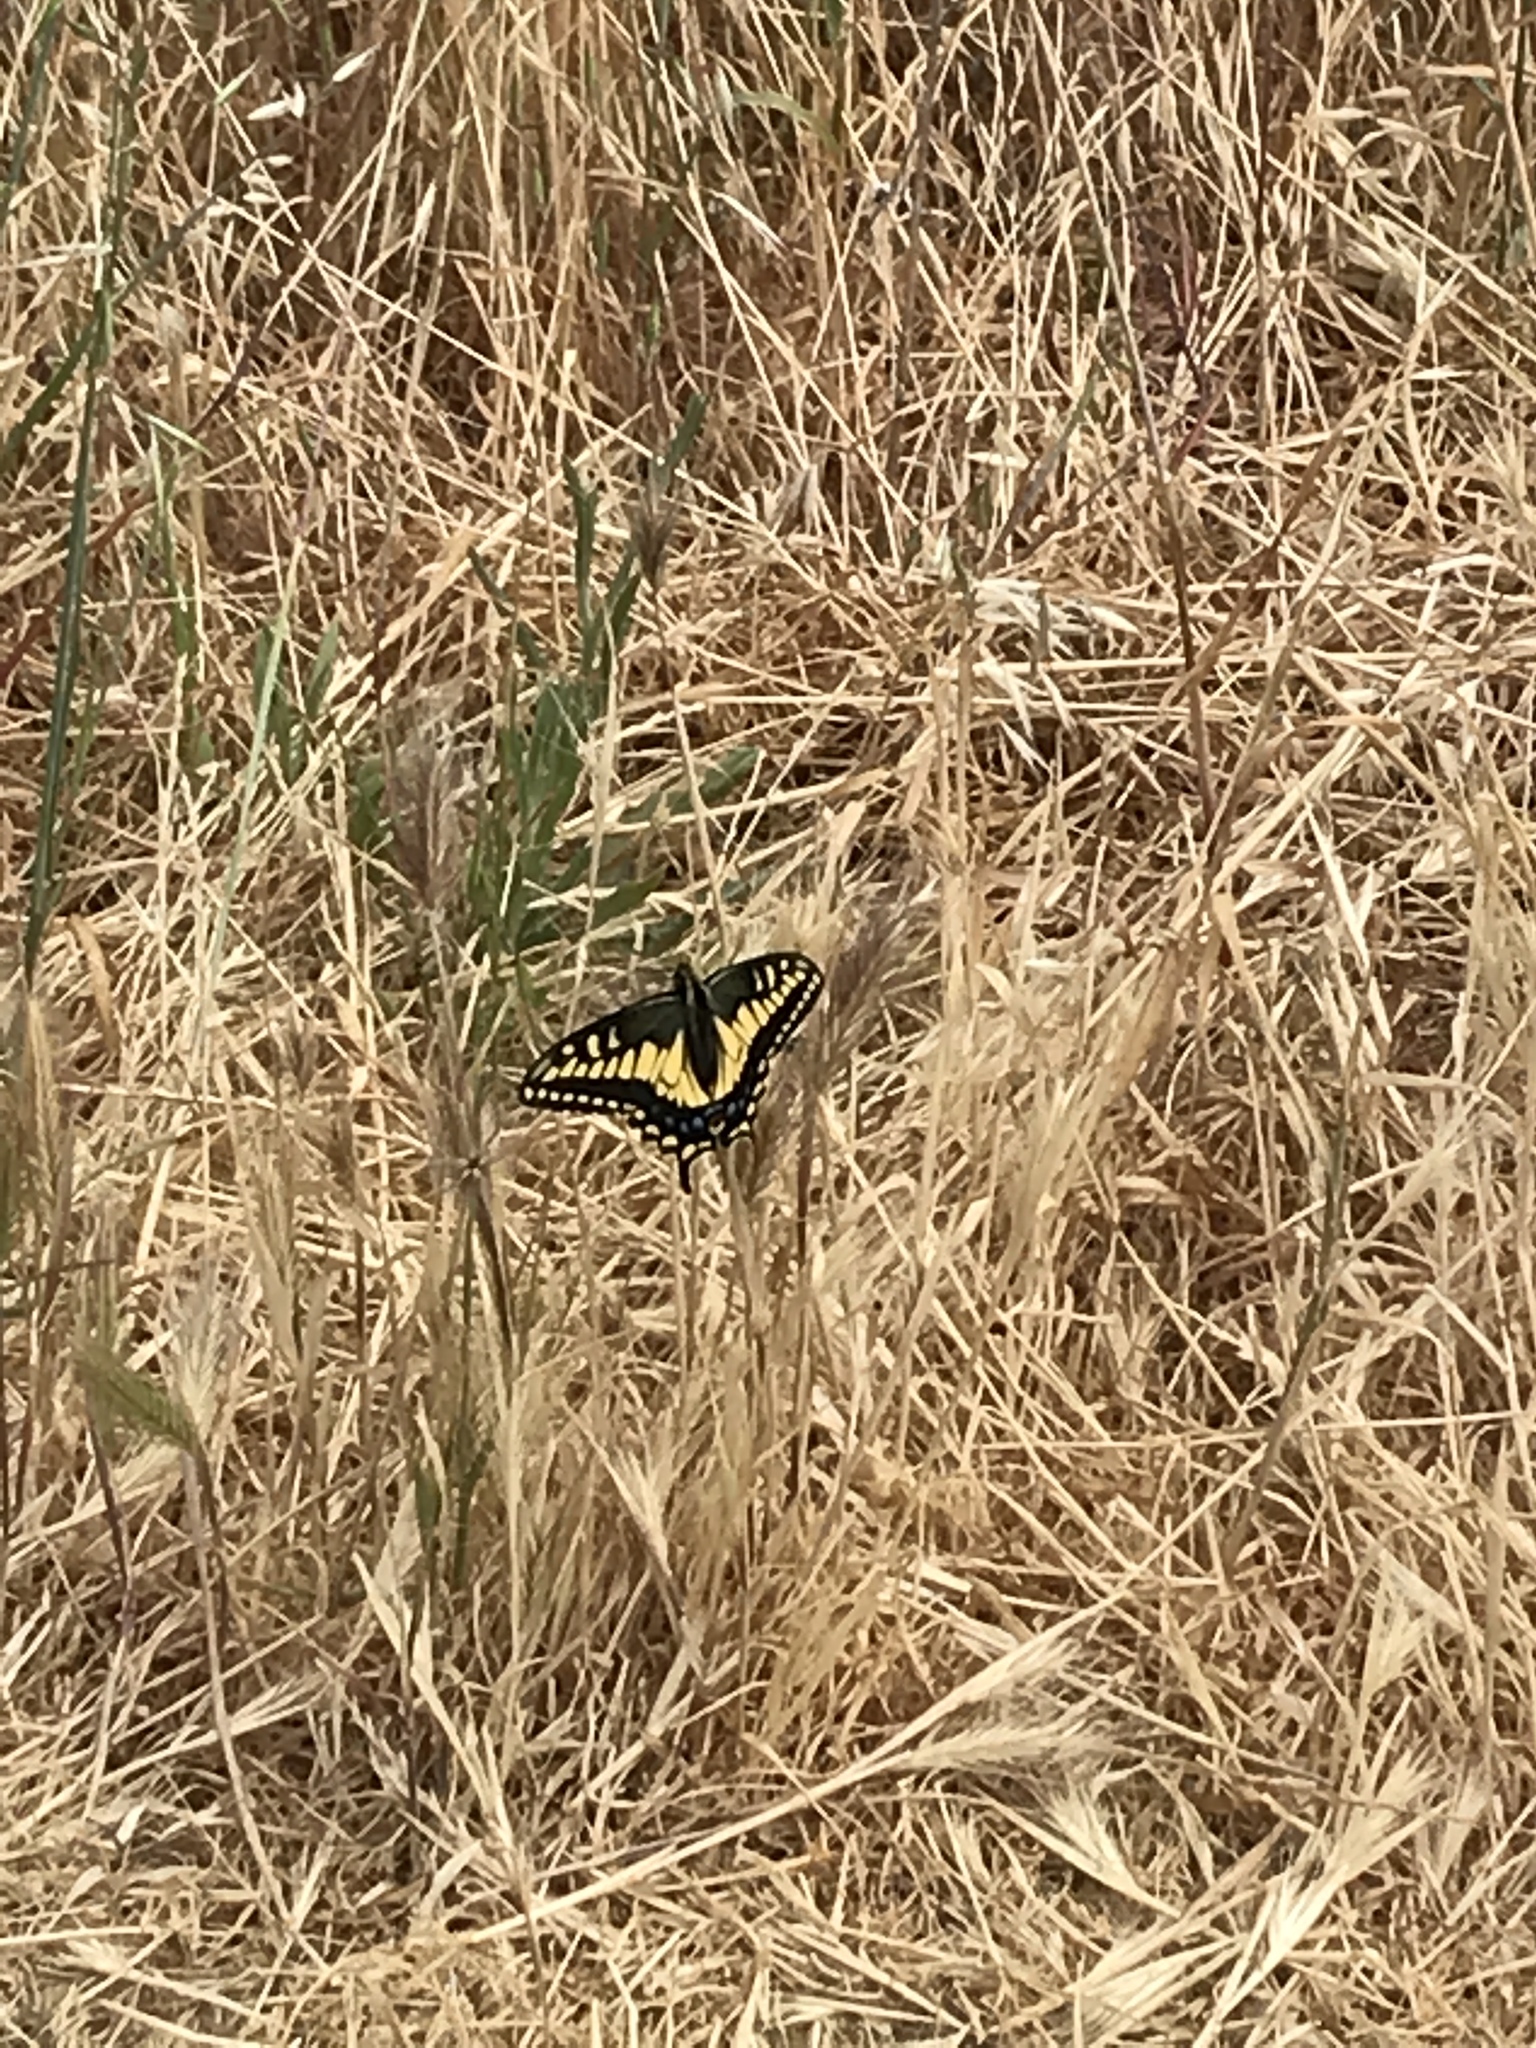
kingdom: Animalia
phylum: Arthropoda
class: Insecta
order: Lepidoptera
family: Papilionidae
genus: Papilio
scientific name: Papilio zelicaon
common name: Anise swallowtail
